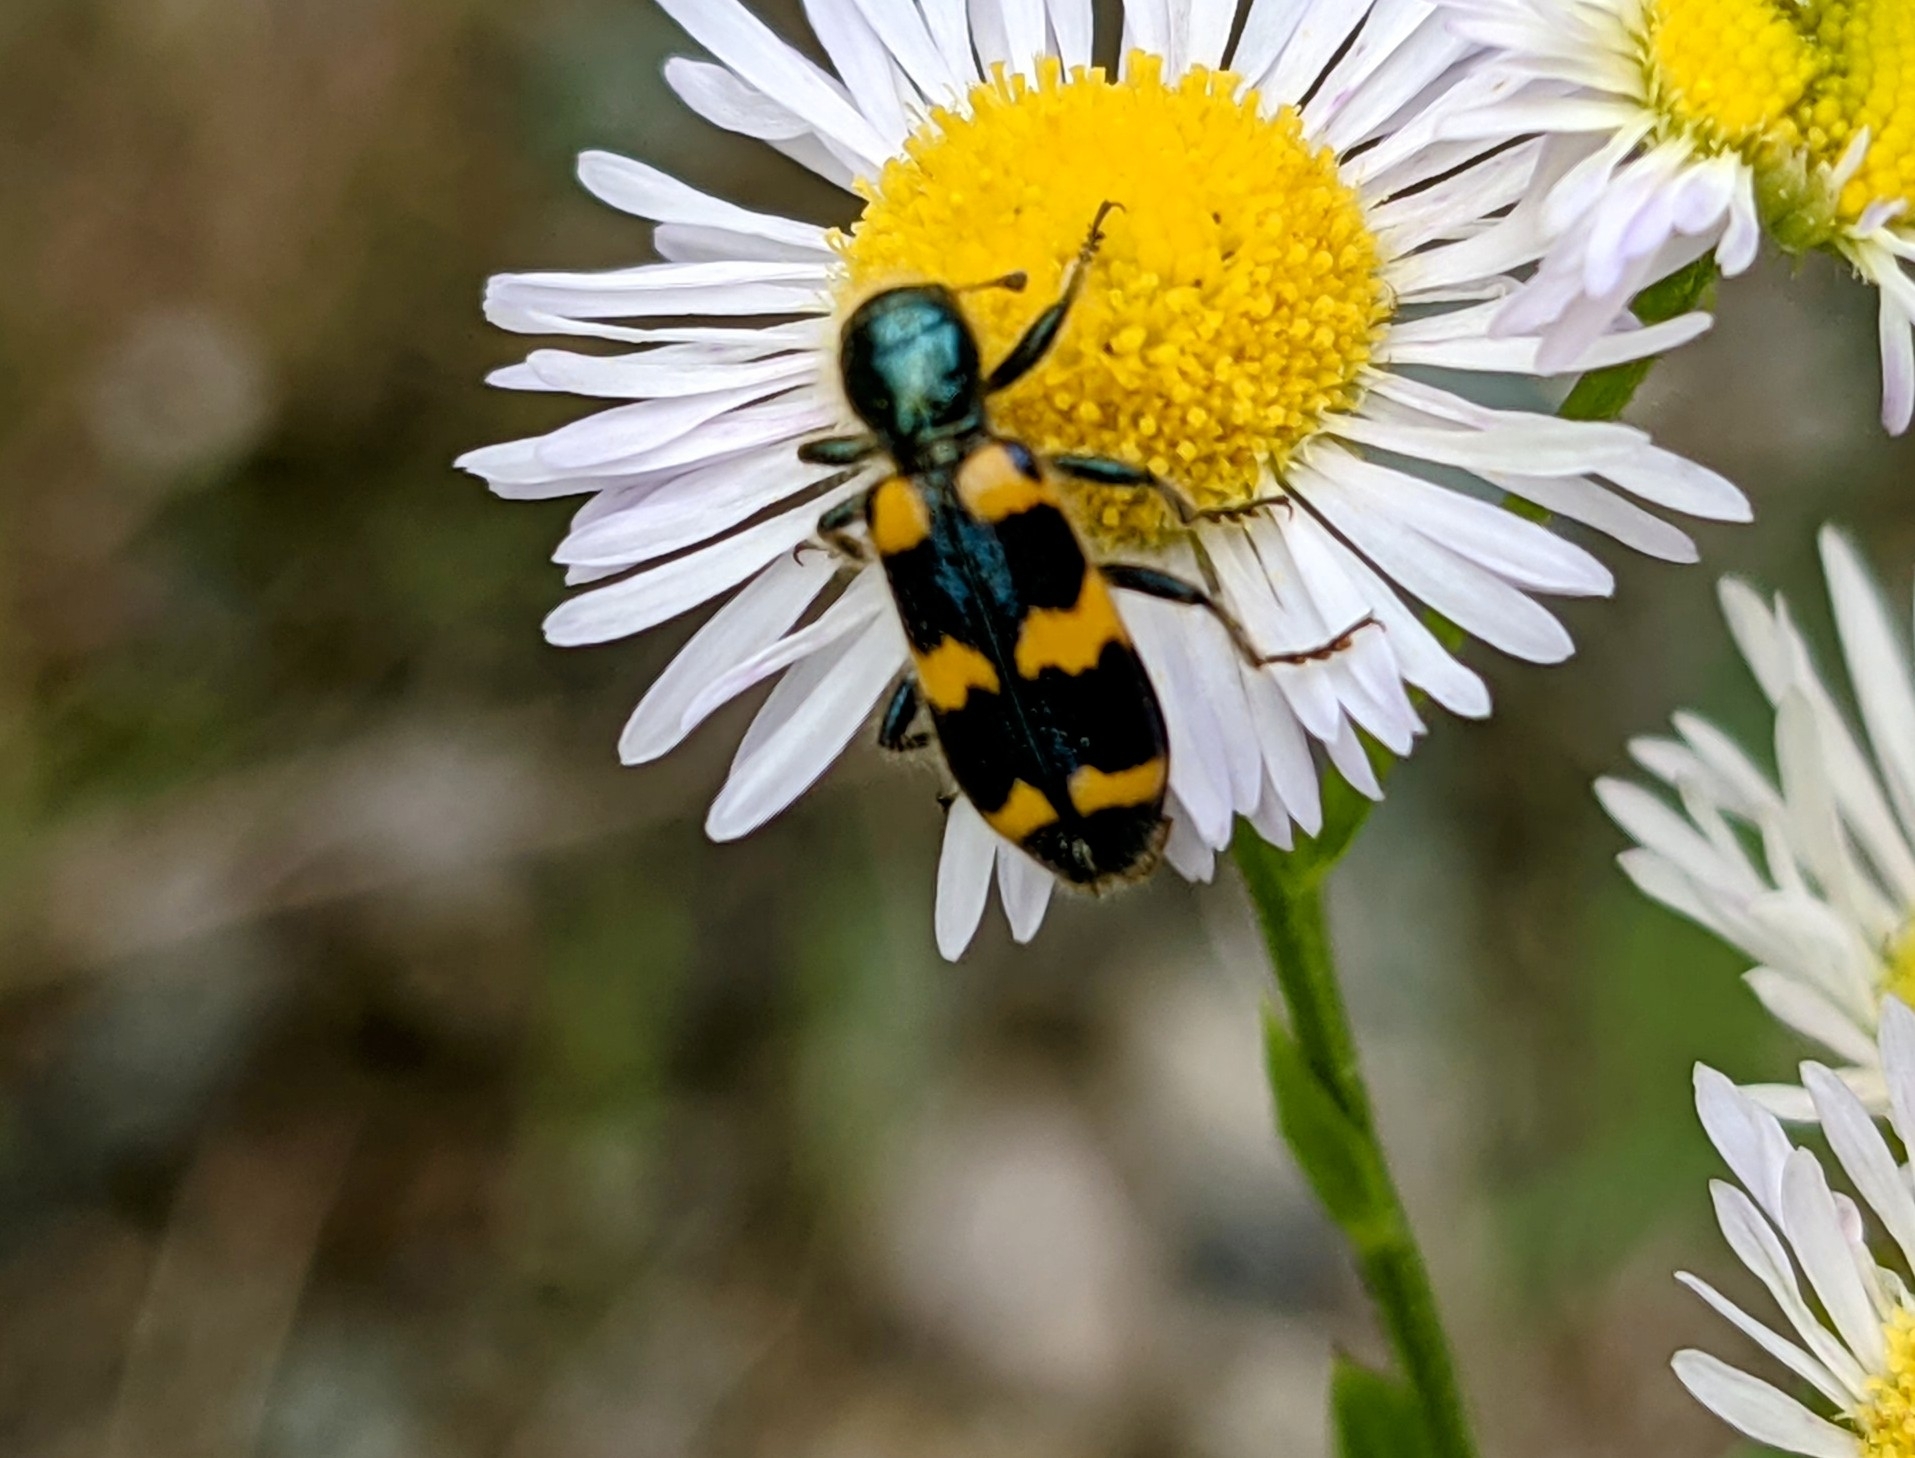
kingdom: Animalia
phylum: Arthropoda
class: Insecta
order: Coleoptera
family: Cleridae
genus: Trichodes
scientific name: Trichodes nutalli
